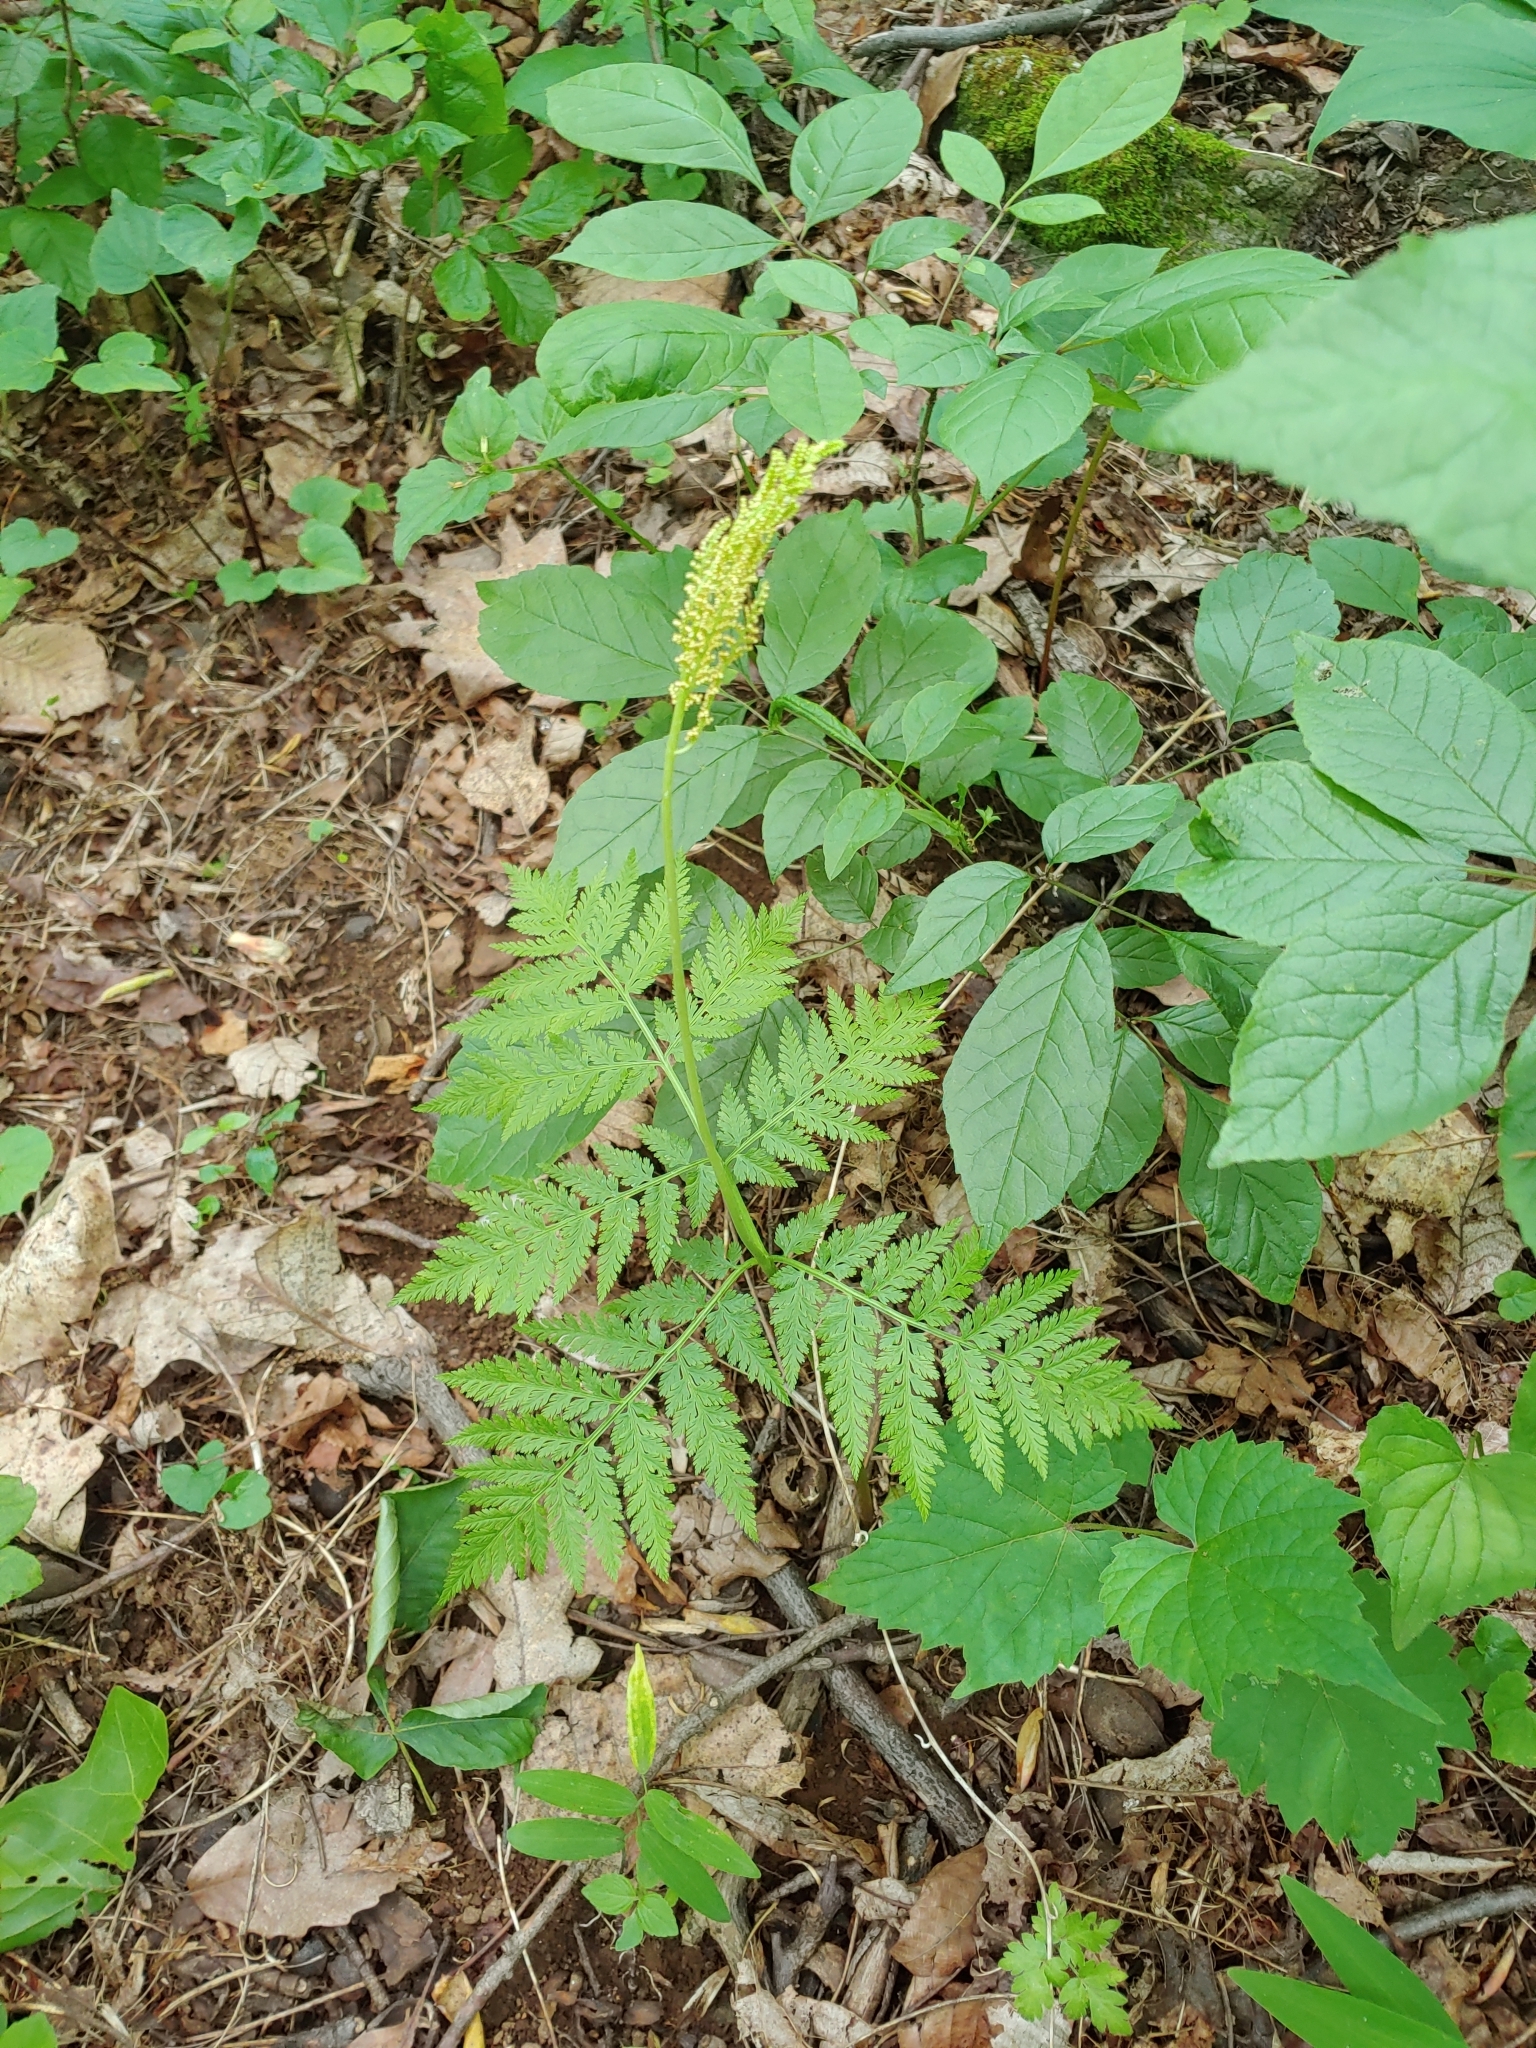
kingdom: Plantae
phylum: Tracheophyta
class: Polypodiopsida
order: Ophioglossales
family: Ophioglossaceae
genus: Botrypus
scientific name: Botrypus virginianus
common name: Common grapefern
